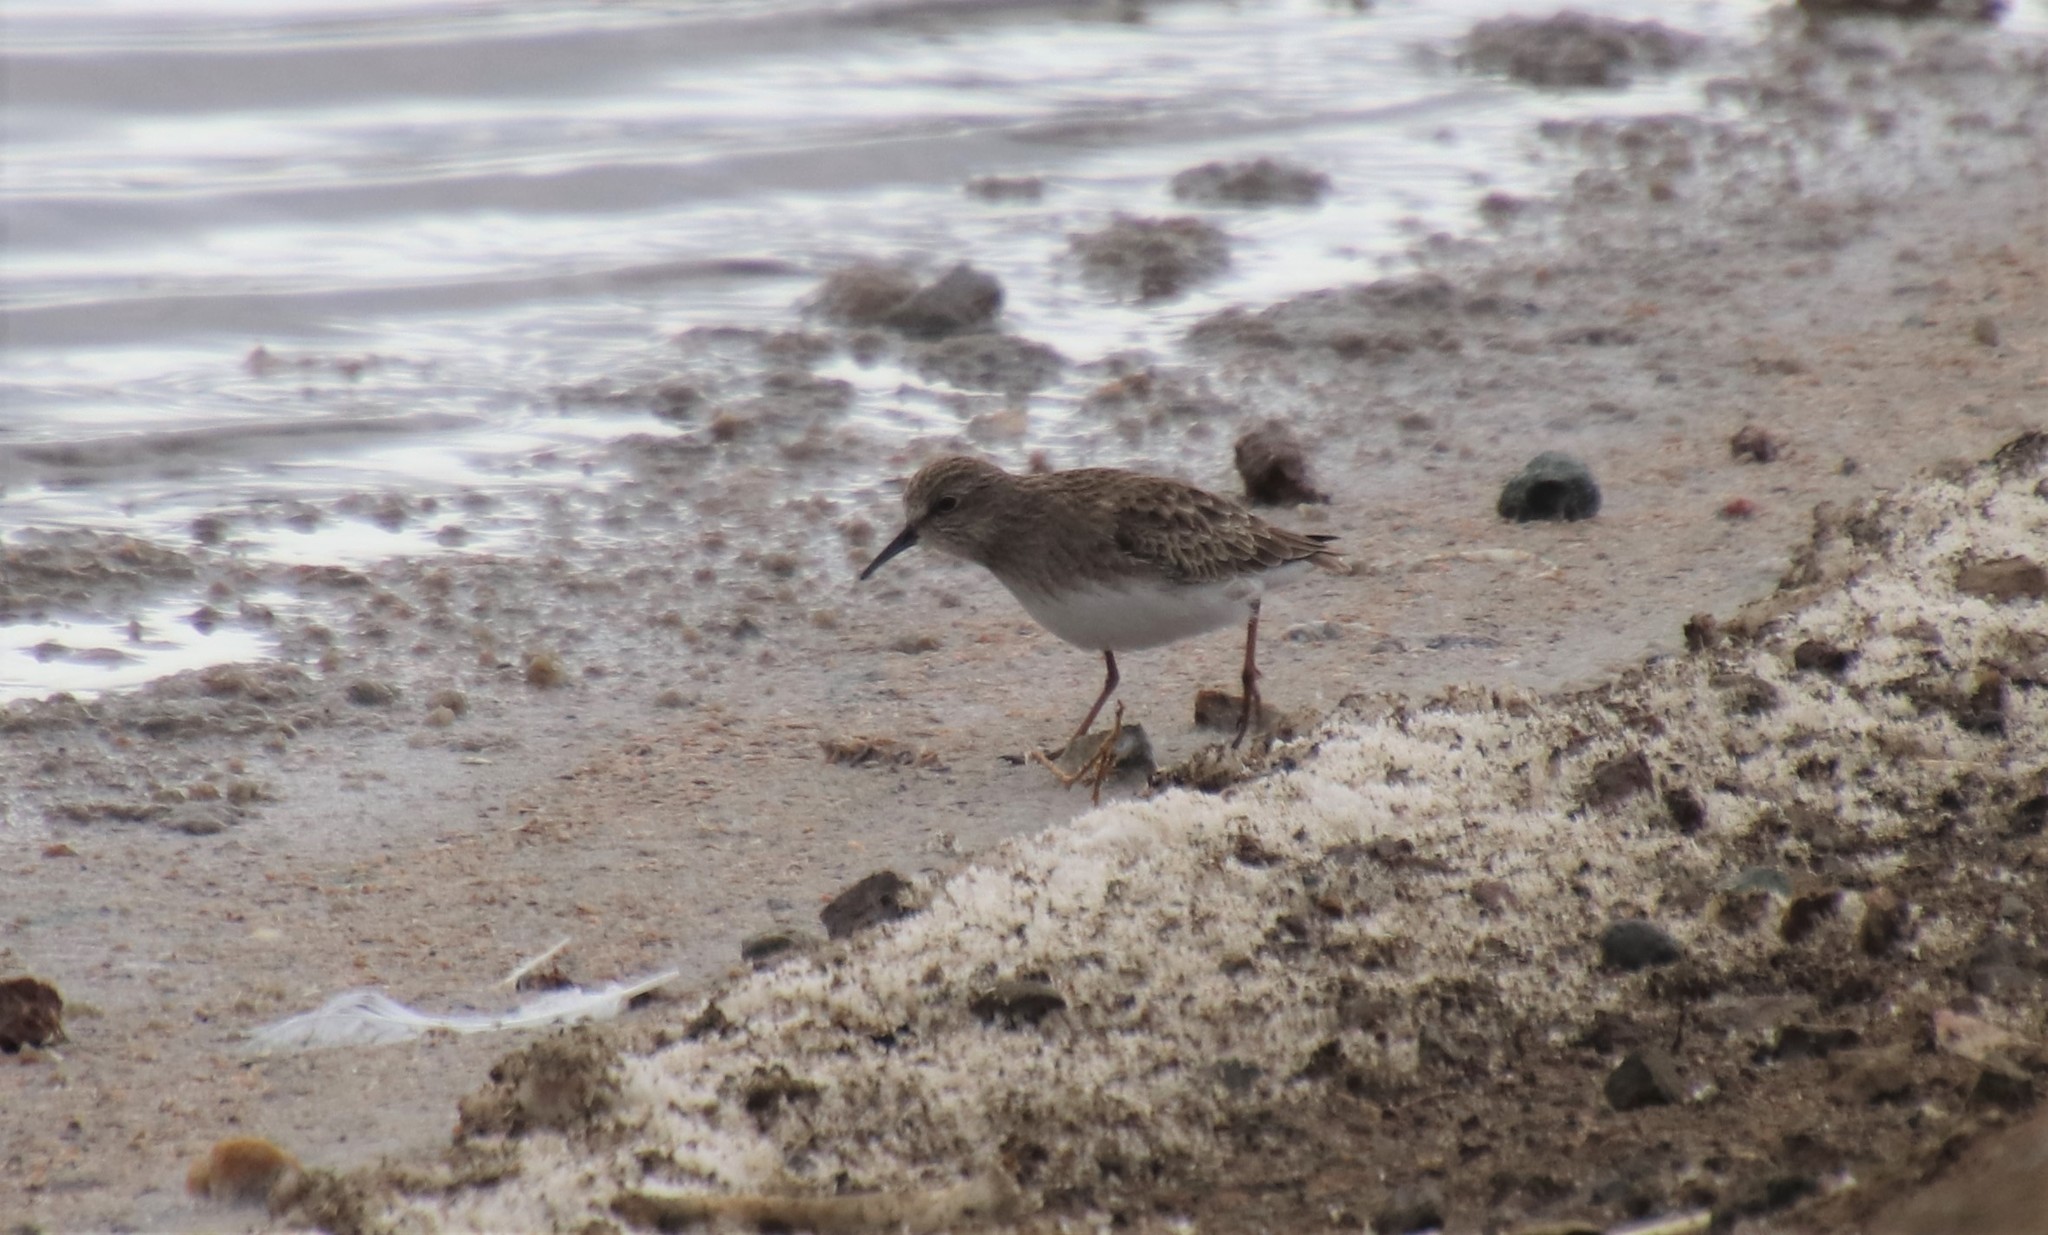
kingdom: Animalia
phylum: Chordata
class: Aves
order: Charadriiformes
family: Scolopacidae
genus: Calidris
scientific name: Calidris minutilla
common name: Least sandpiper
